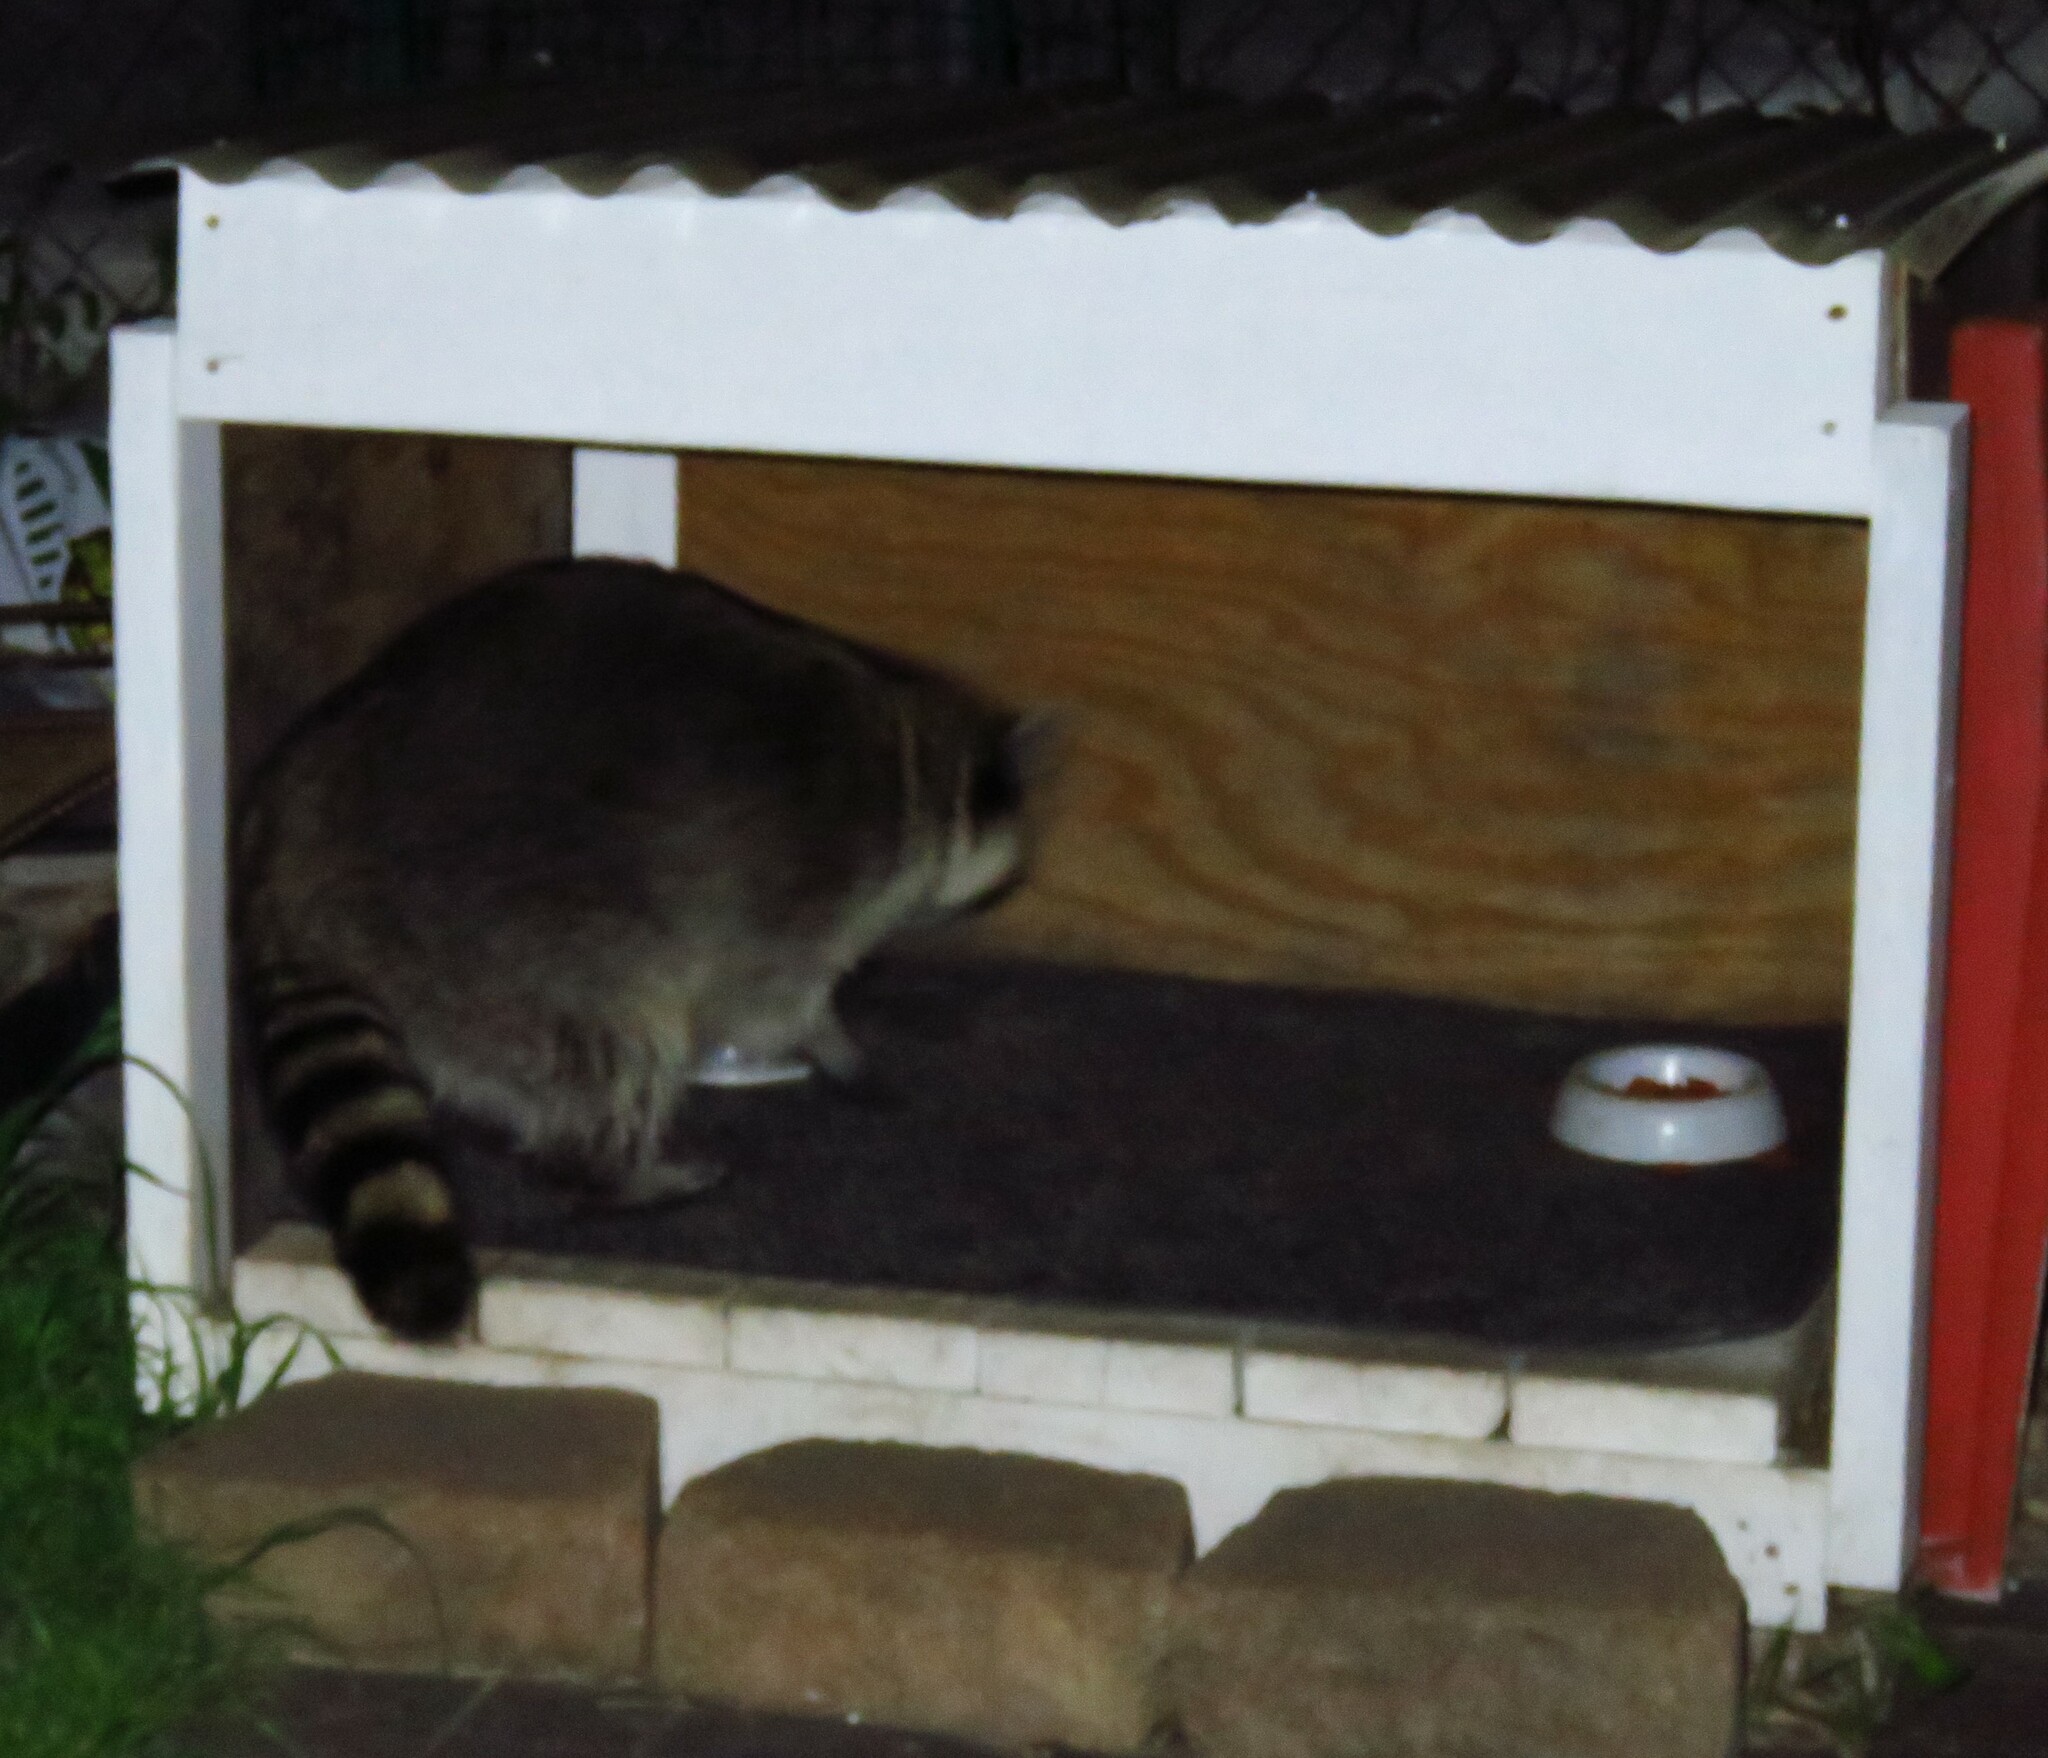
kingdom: Animalia
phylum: Chordata
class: Mammalia
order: Carnivora
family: Procyonidae
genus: Procyon
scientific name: Procyon lotor
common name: Raccoon
